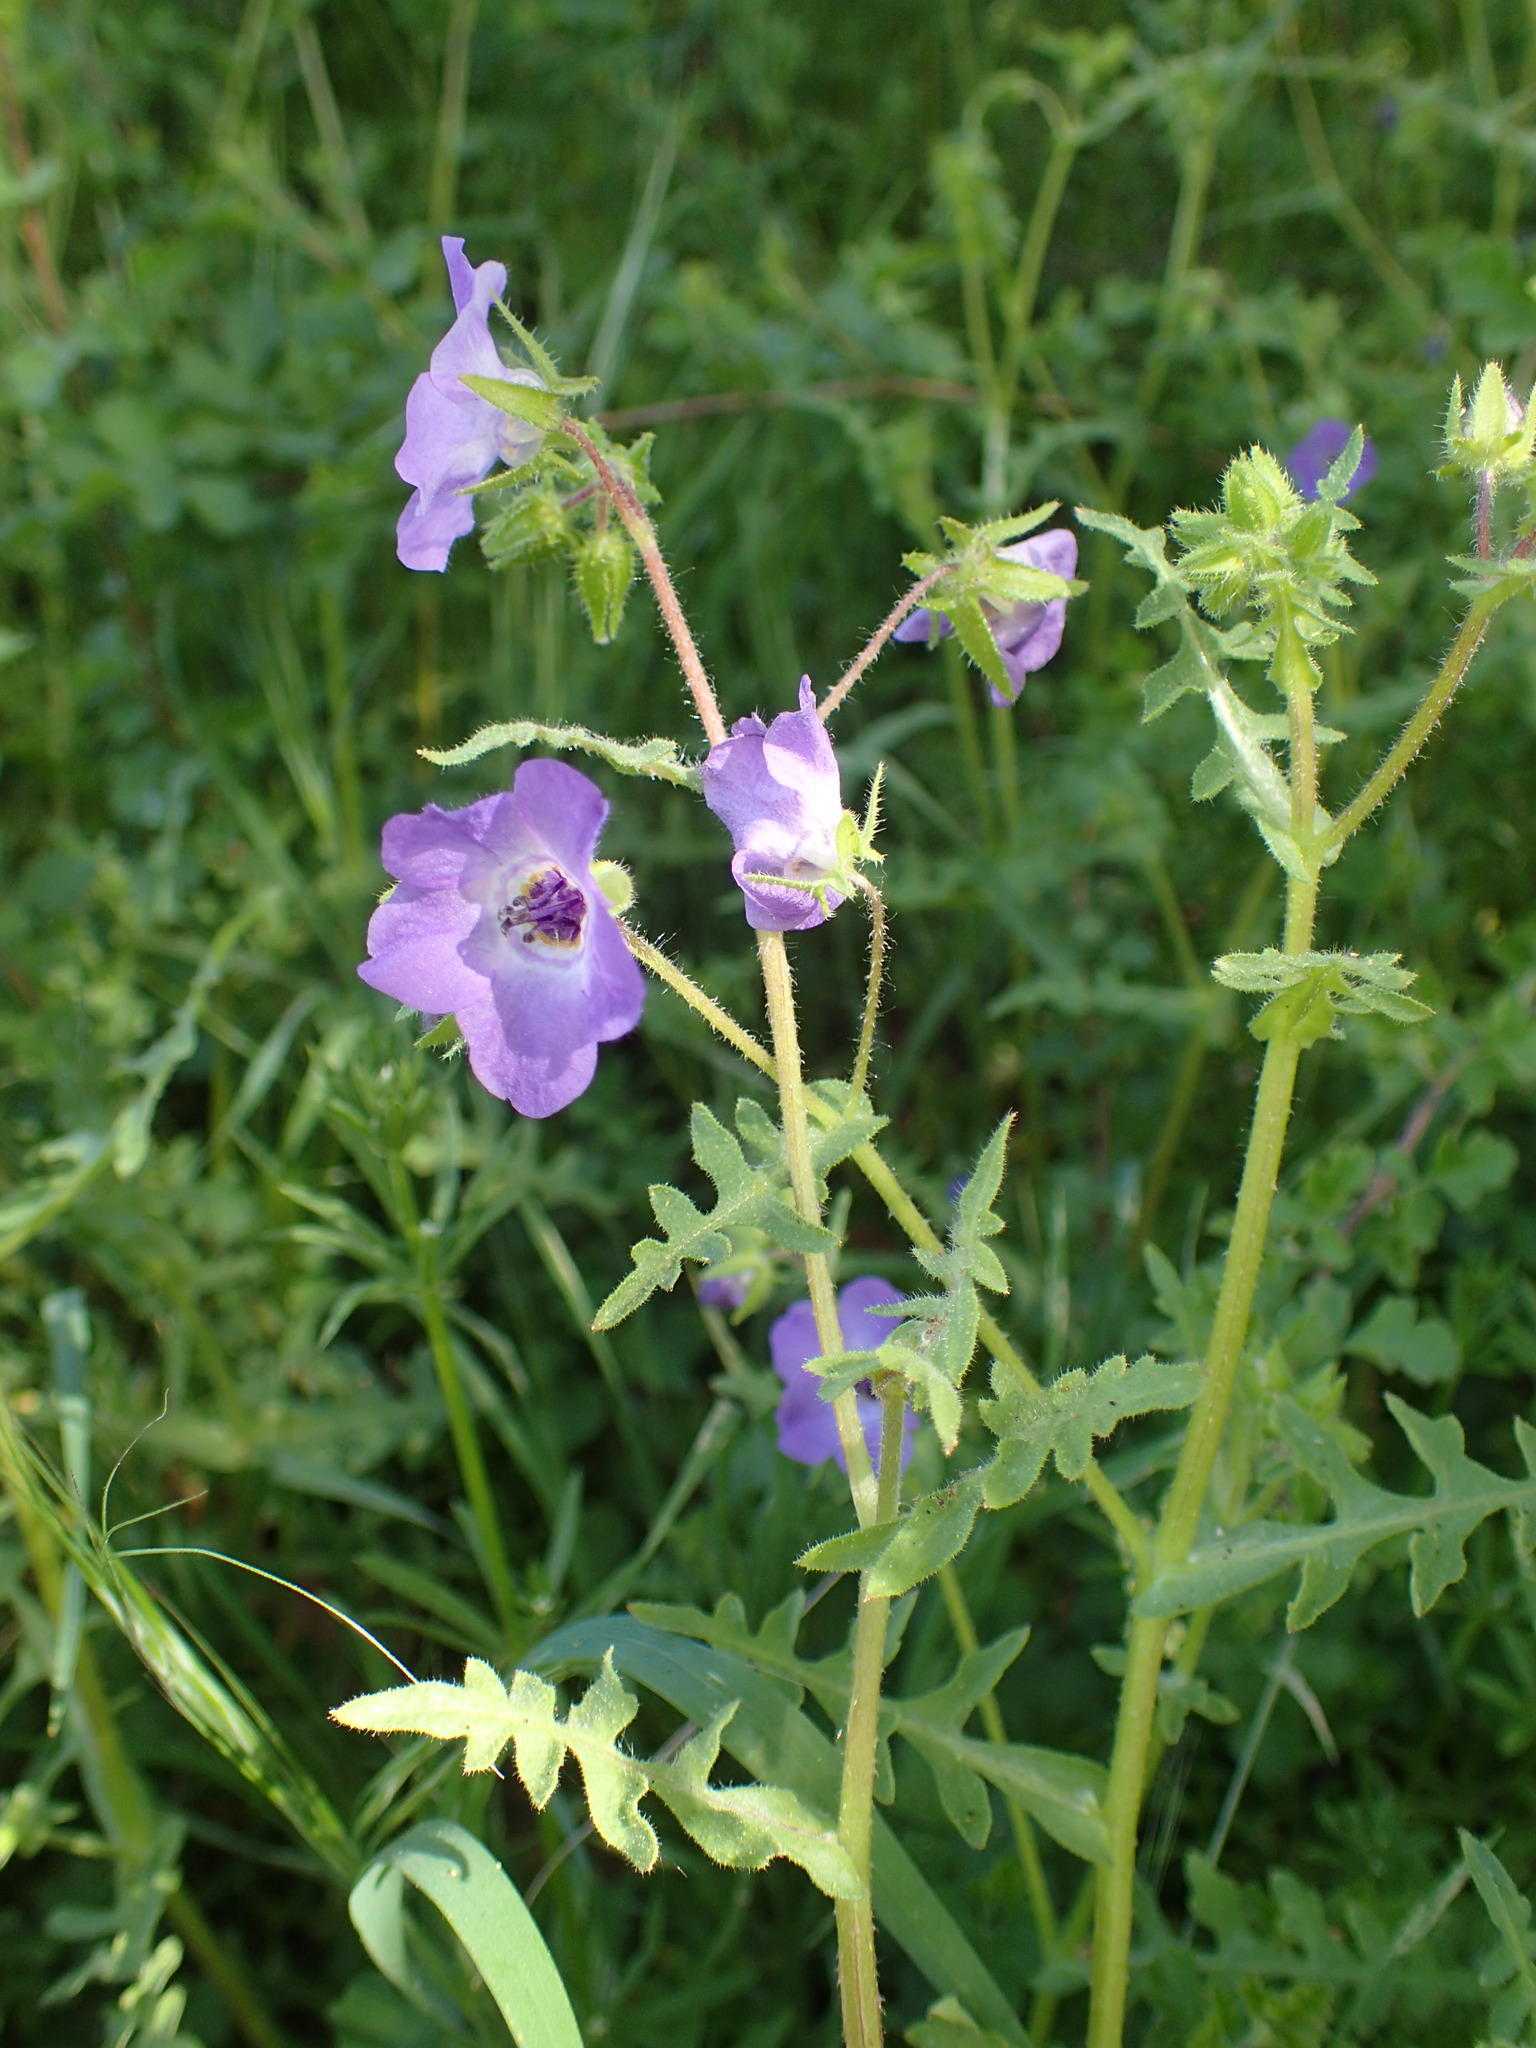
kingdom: Plantae
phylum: Tracheophyta
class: Magnoliopsida
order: Boraginales
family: Hydrophyllaceae
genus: Pholistoma
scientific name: Pholistoma auritum
